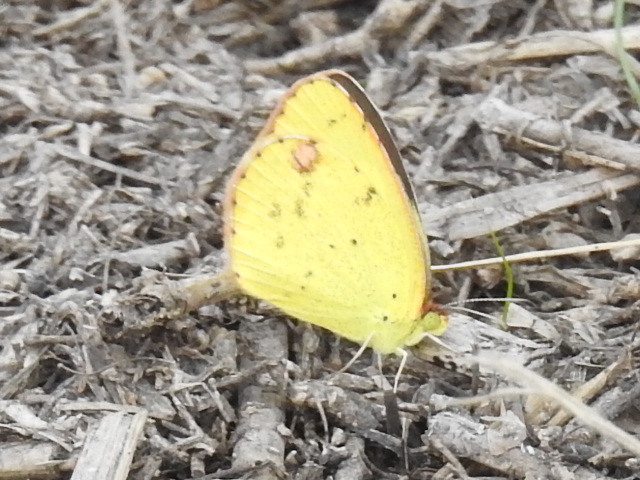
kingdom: Animalia
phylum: Arthropoda
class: Insecta
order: Lepidoptera
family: Pieridae
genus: Pyrisitia
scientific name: Pyrisitia lisa
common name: Little yellow
